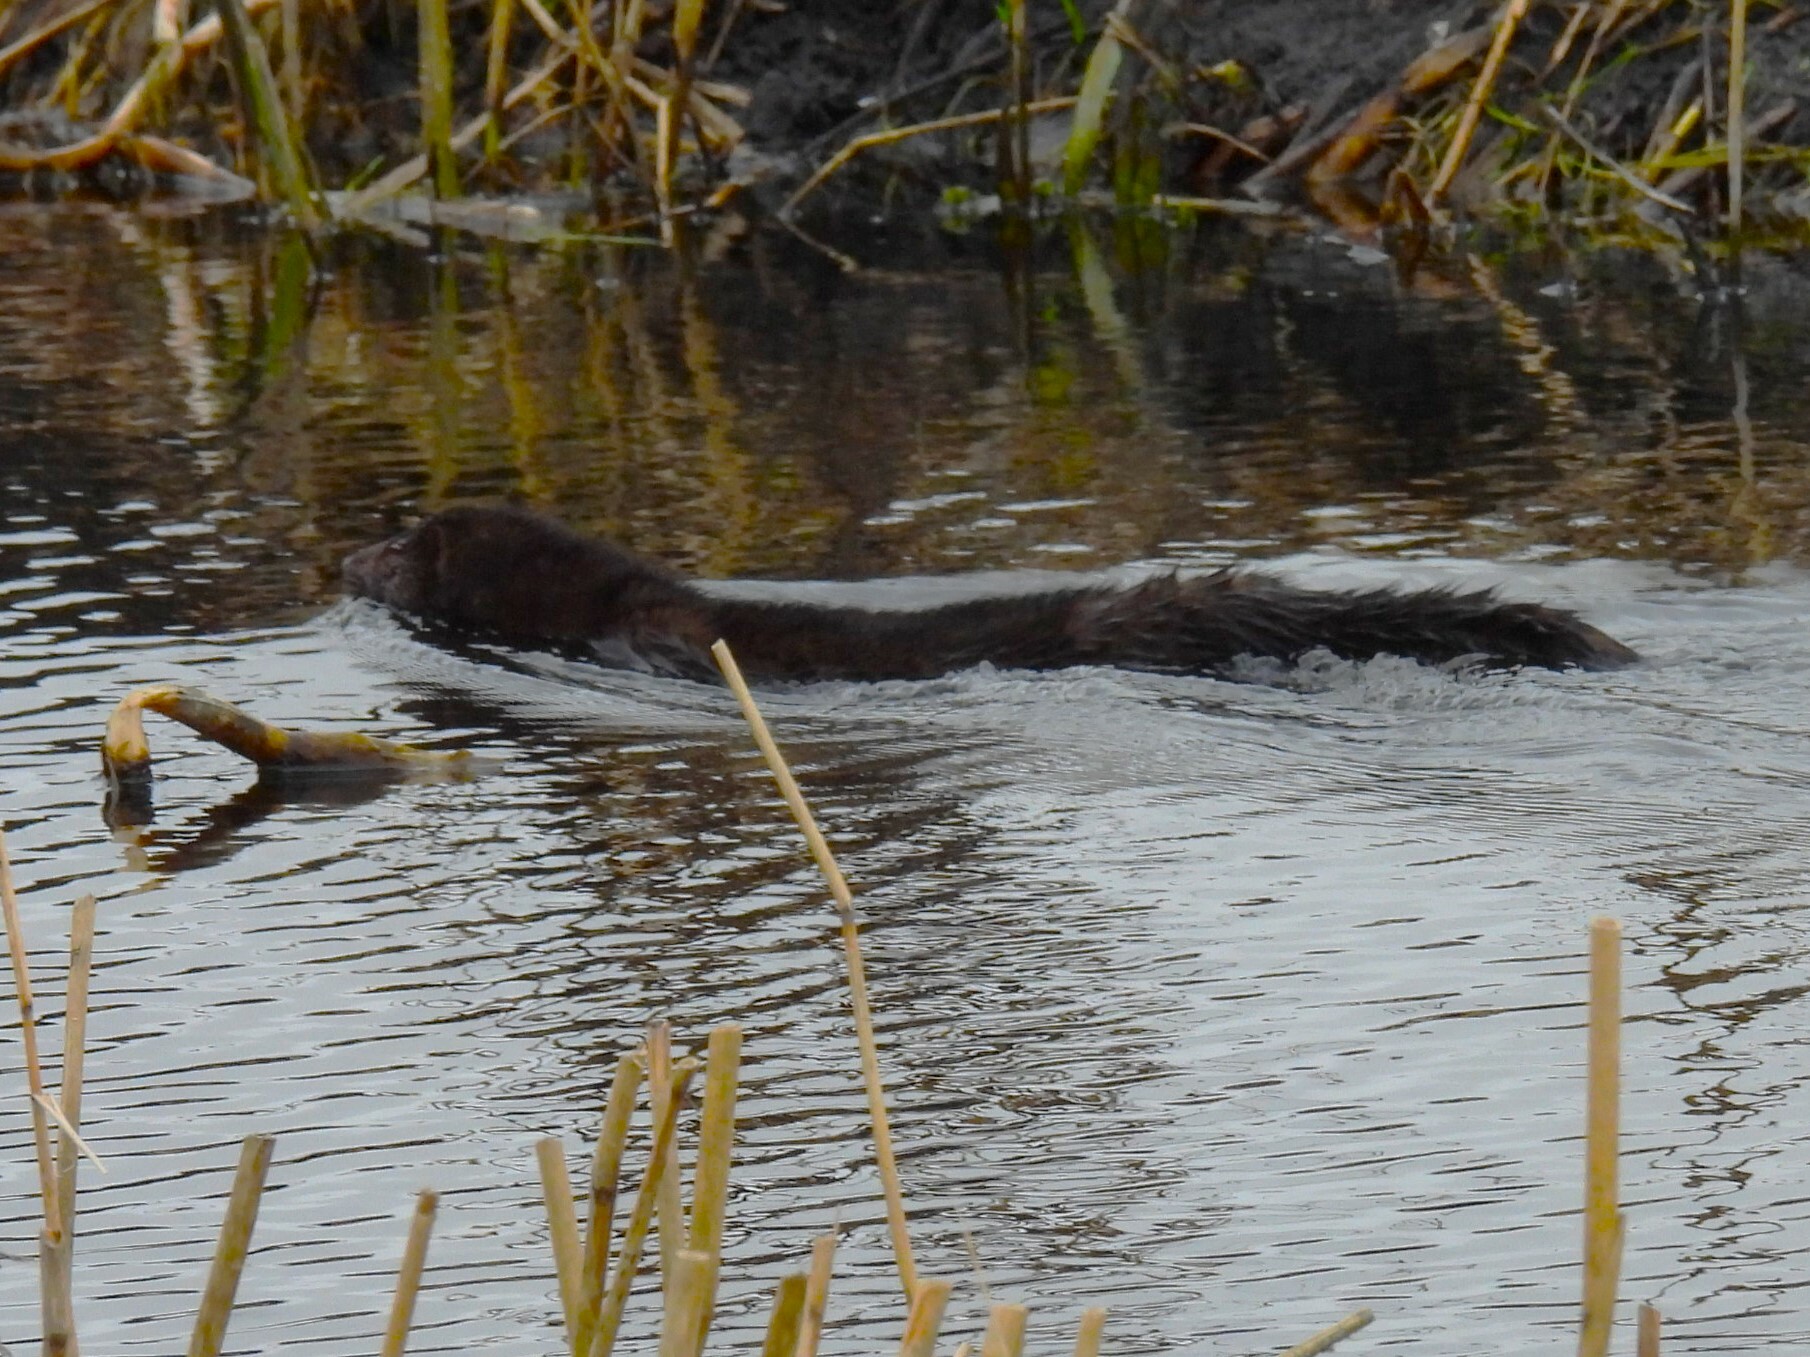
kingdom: Animalia
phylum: Chordata
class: Mammalia
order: Carnivora
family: Mustelidae
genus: Mustela
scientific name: Mustela
